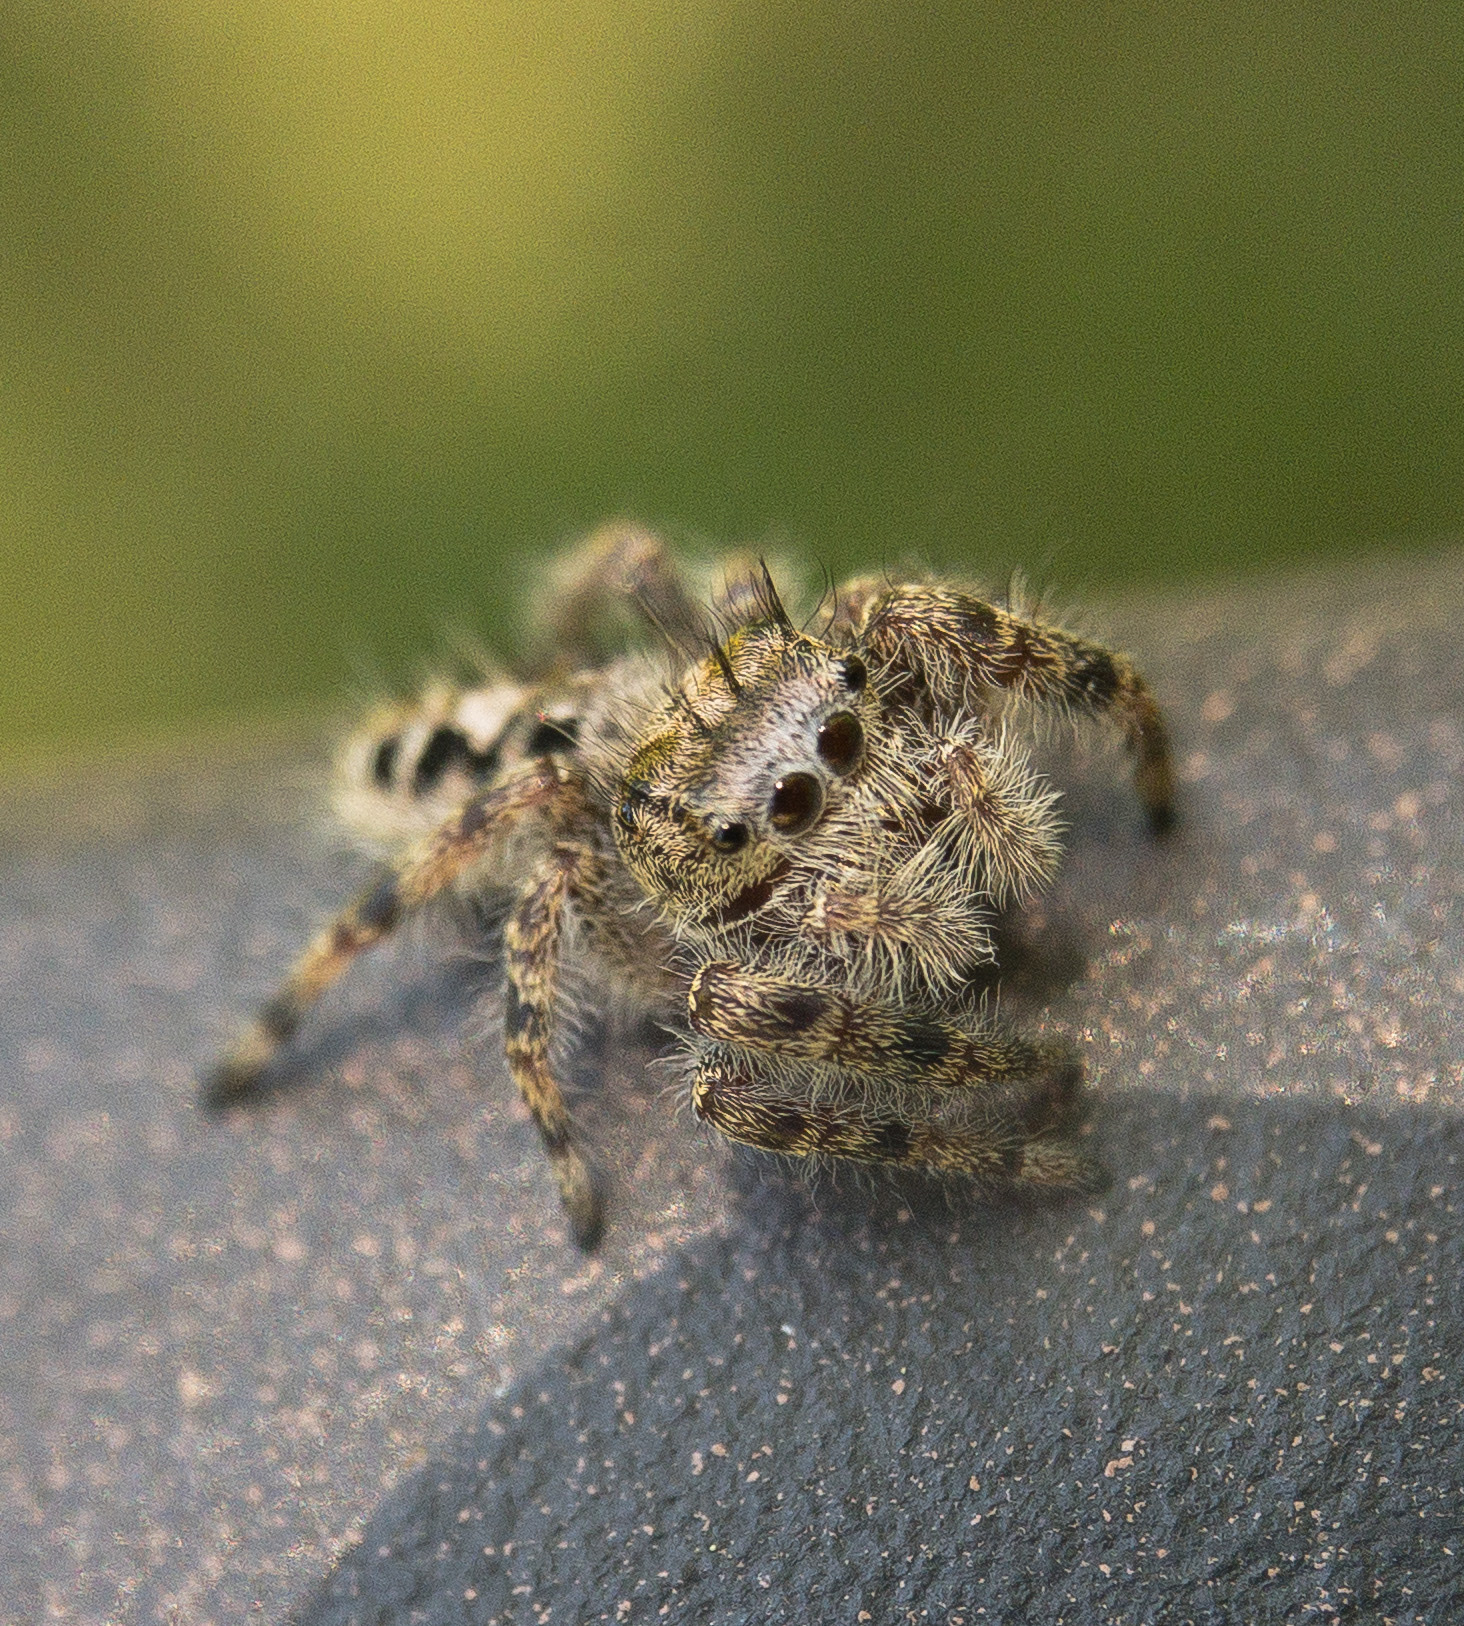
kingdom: Animalia
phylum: Arthropoda
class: Arachnida
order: Araneae
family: Salticidae
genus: Phidippus
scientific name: Phidippus putnami
